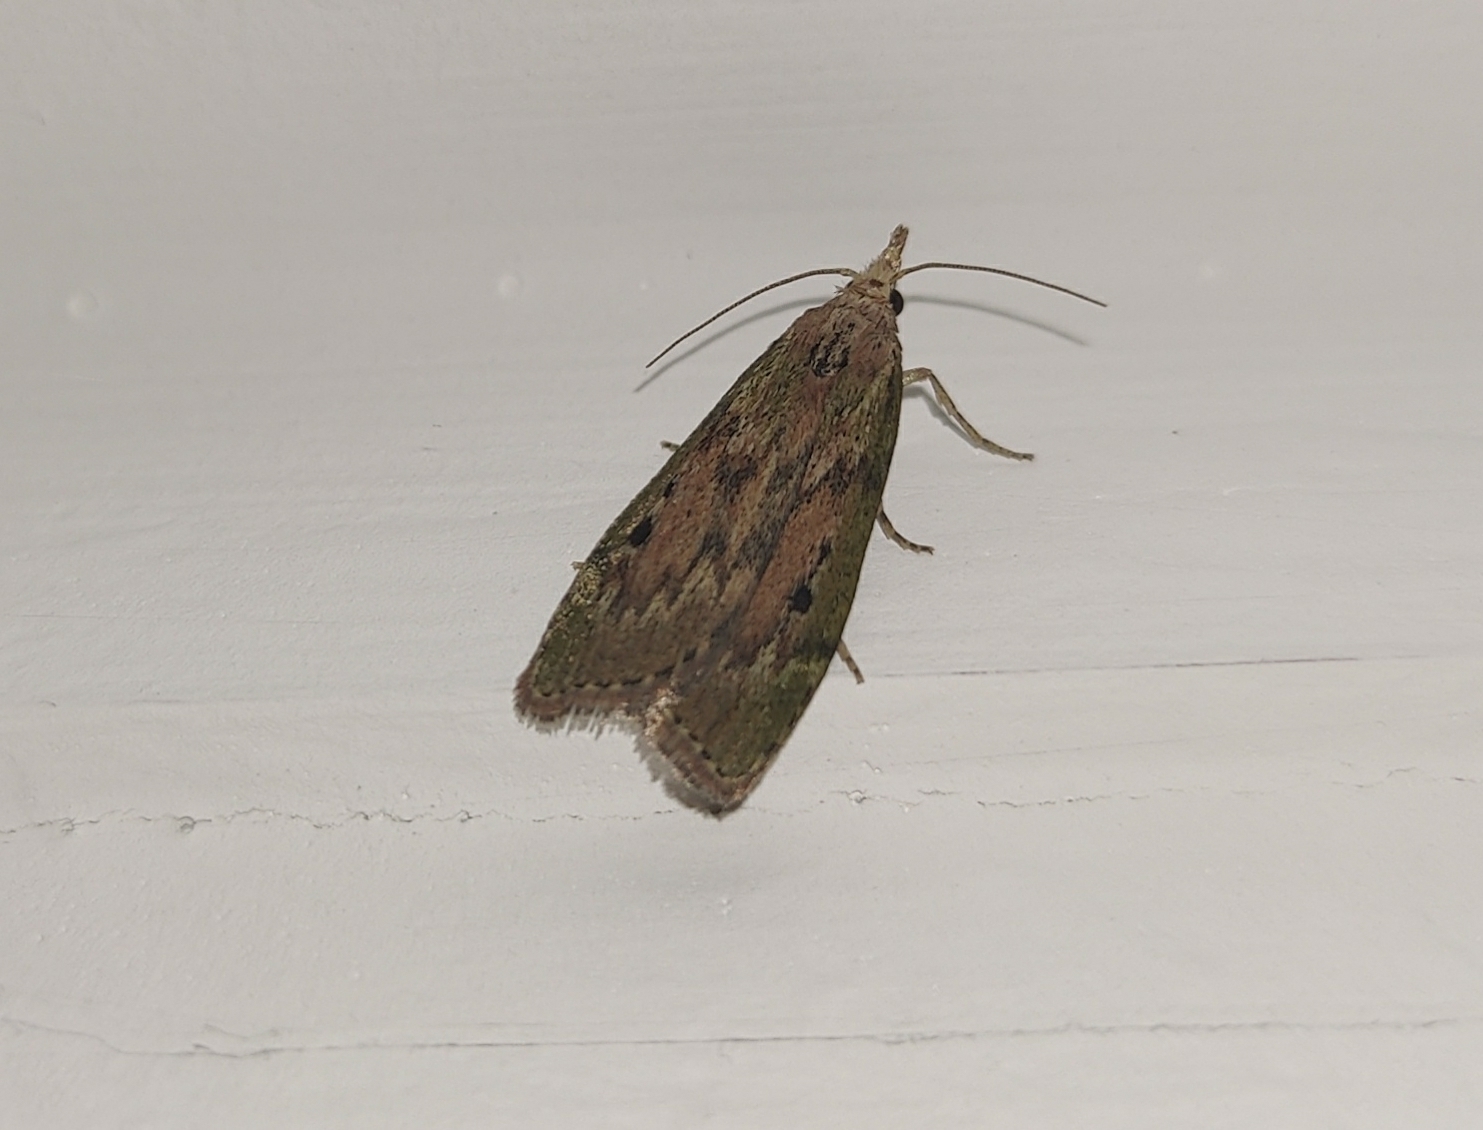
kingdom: Animalia
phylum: Arthropoda
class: Insecta
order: Lepidoptera
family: Pyralidae
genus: Aphomia
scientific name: Aphomia sociella
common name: Bee moth
